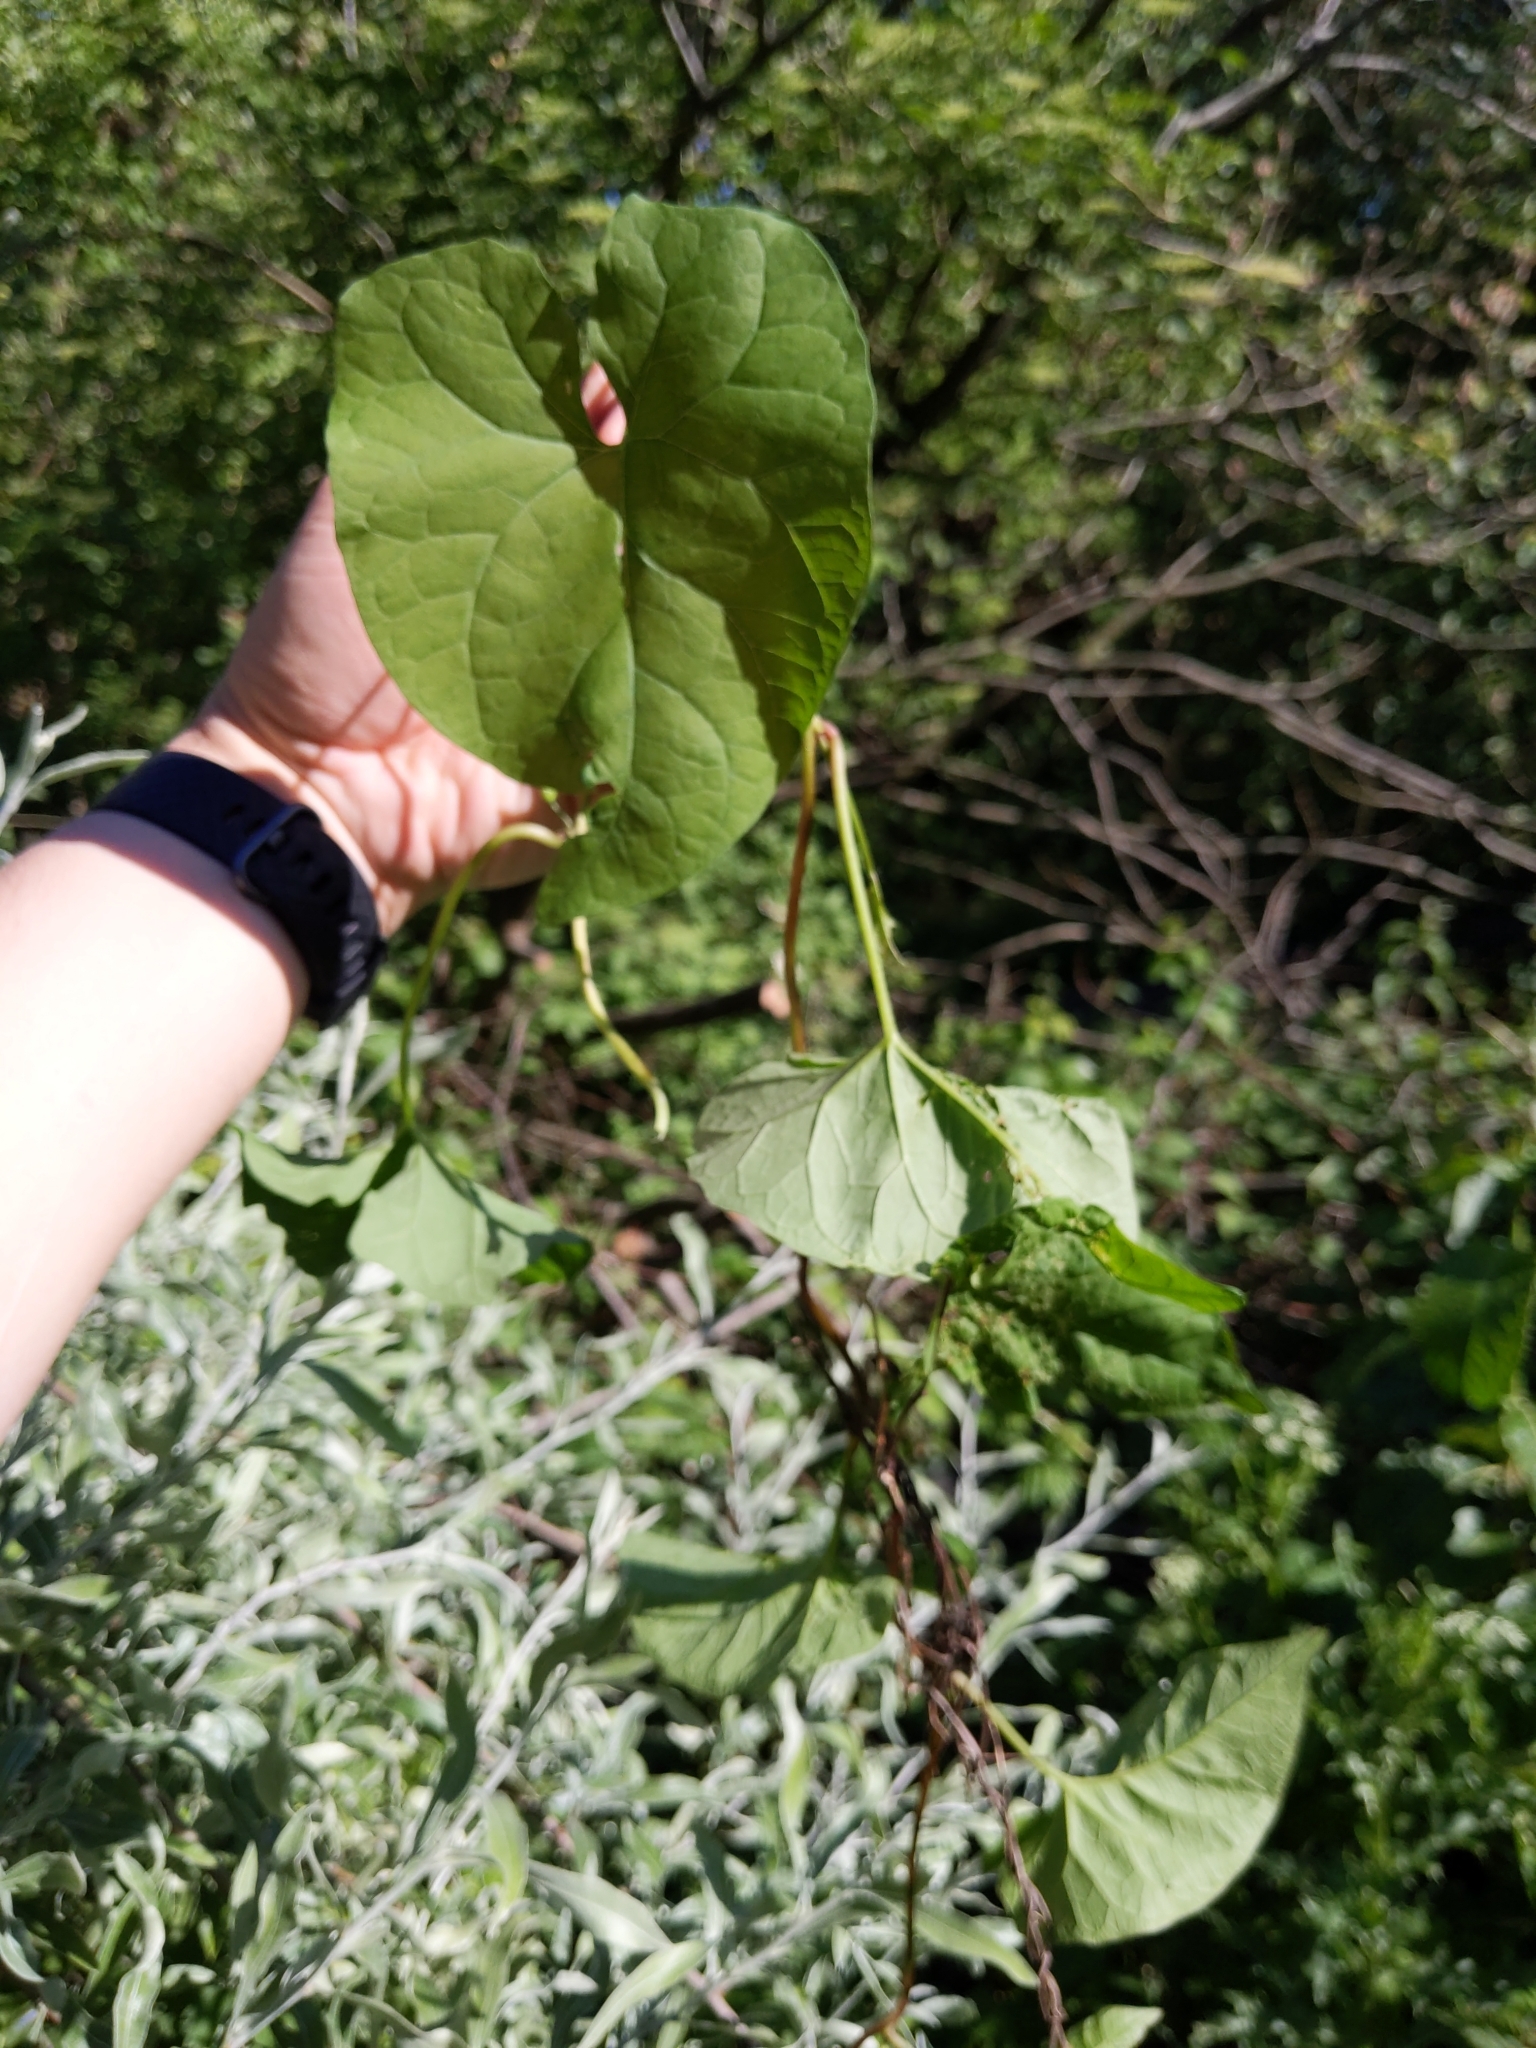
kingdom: Plantae
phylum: Tracheophyta
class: Magnoliopsida
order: Solanales
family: Convolvulaceae
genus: Calystegia
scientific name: Calystegia
